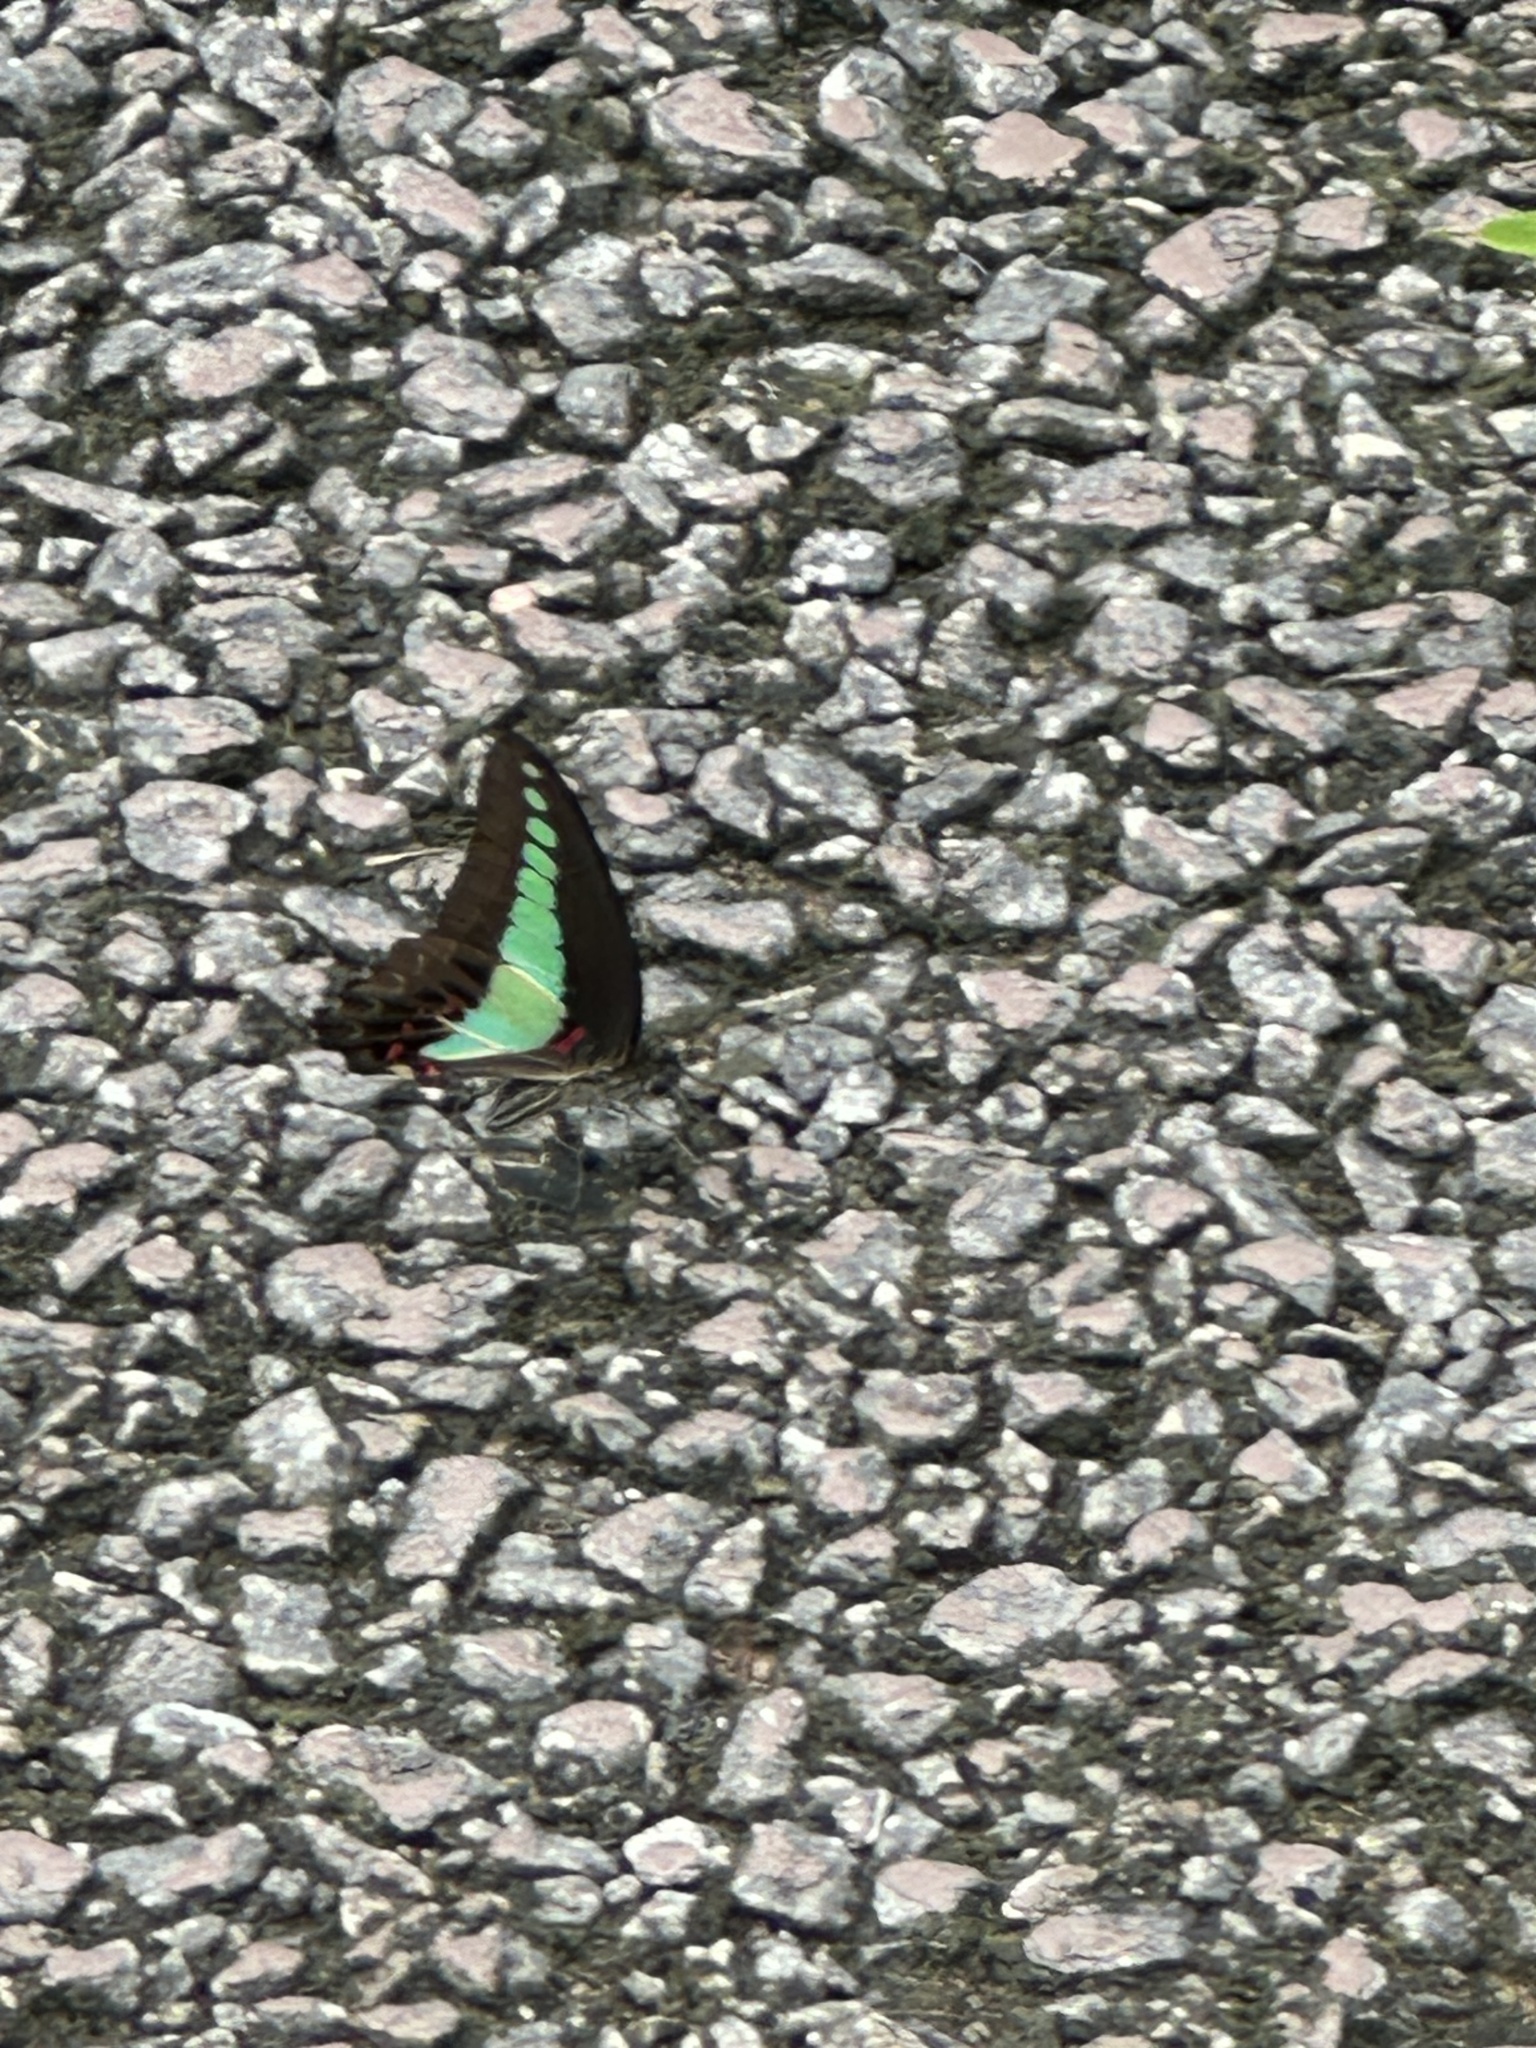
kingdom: Fungi
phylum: Ascomycota
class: Sordariomycetes
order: Microascales
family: Microascaceae
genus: Graphium
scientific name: Graphium sarpedon
